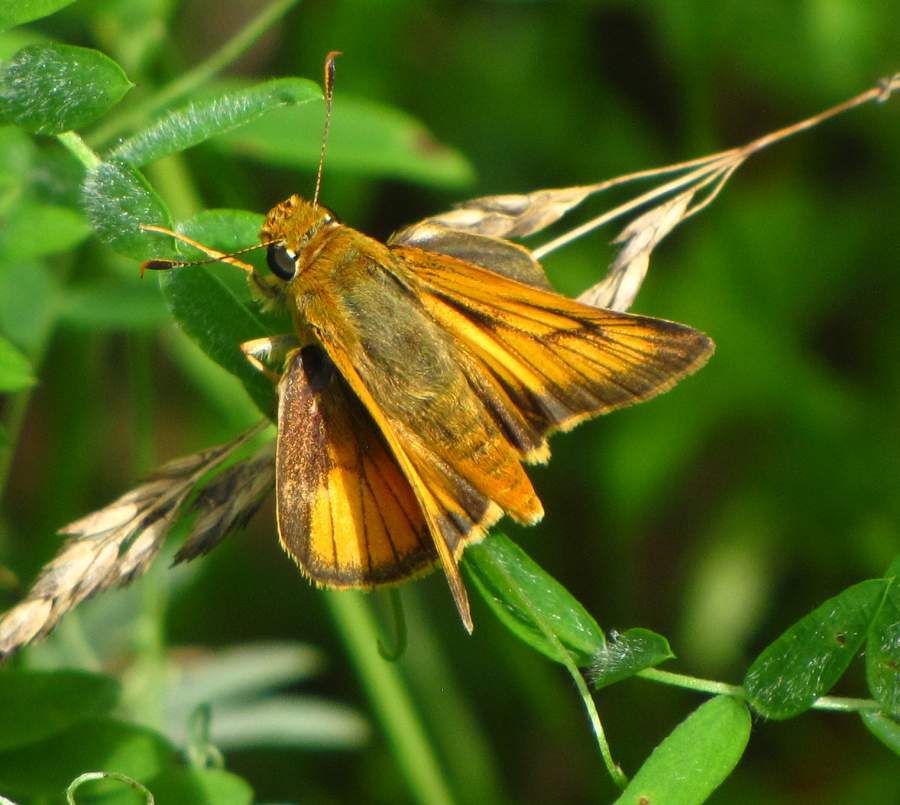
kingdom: Animalia
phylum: Arthropoda
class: Insecta
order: Lepidoptera
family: Hesperiidae
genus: Atrytone
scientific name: Atrytone delaware
